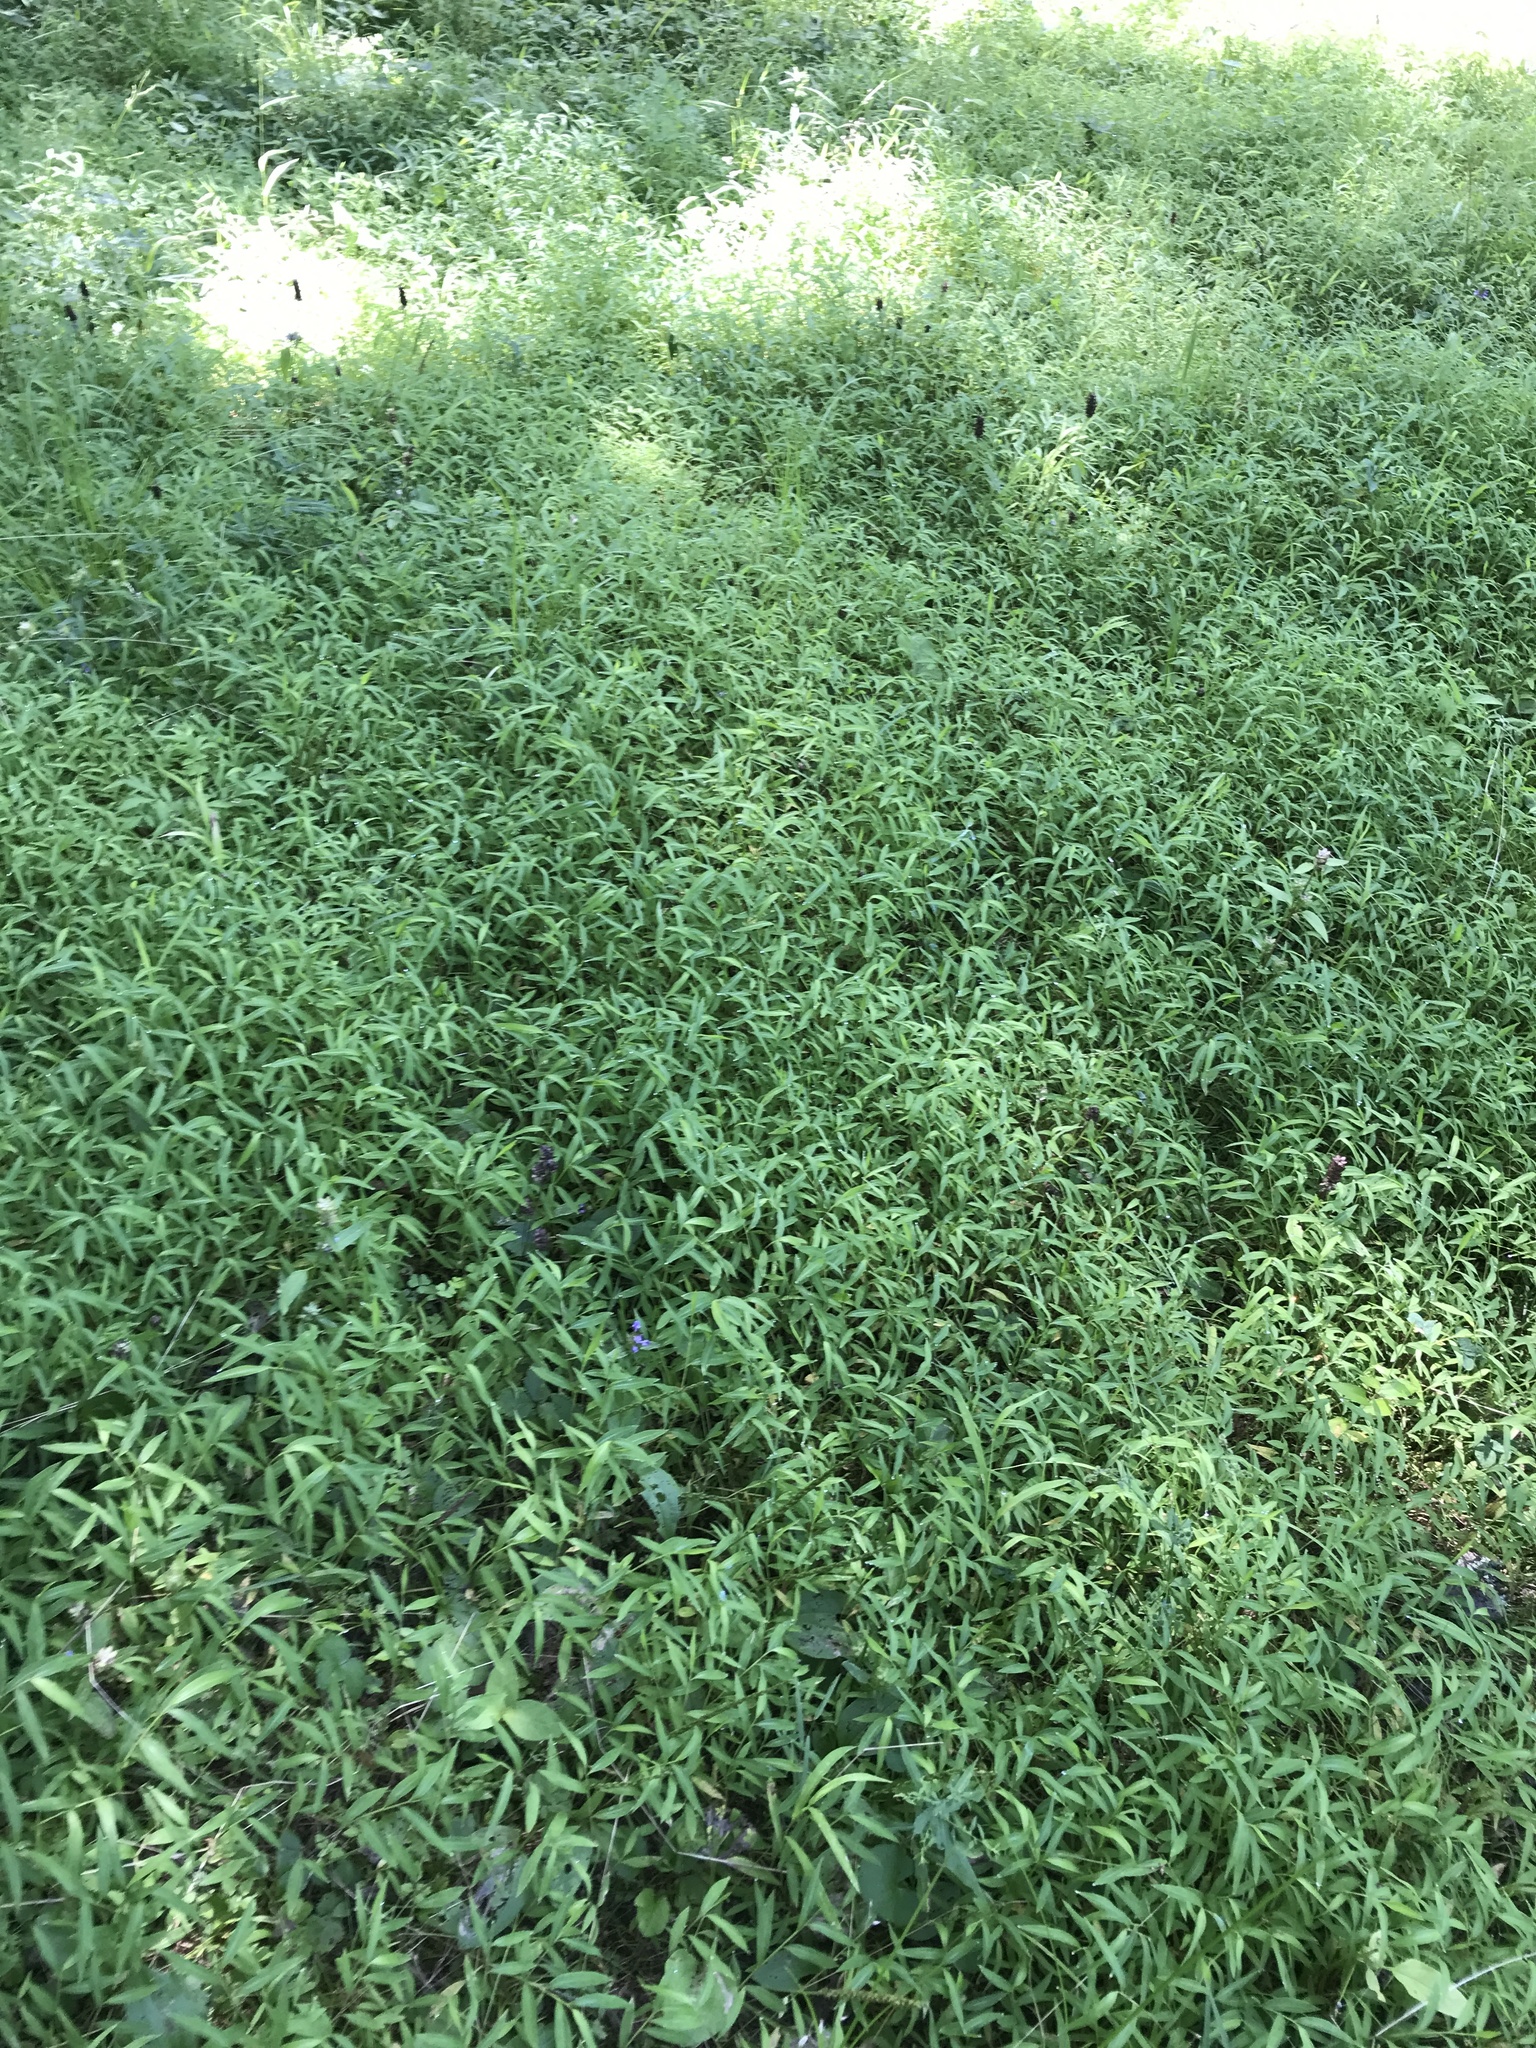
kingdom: Plantae
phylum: Tracheophyta
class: Liliopsida
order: Poales
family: Poaceae
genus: Microstegium
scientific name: Microstegium vimineum
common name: Japanese stiltgrass
